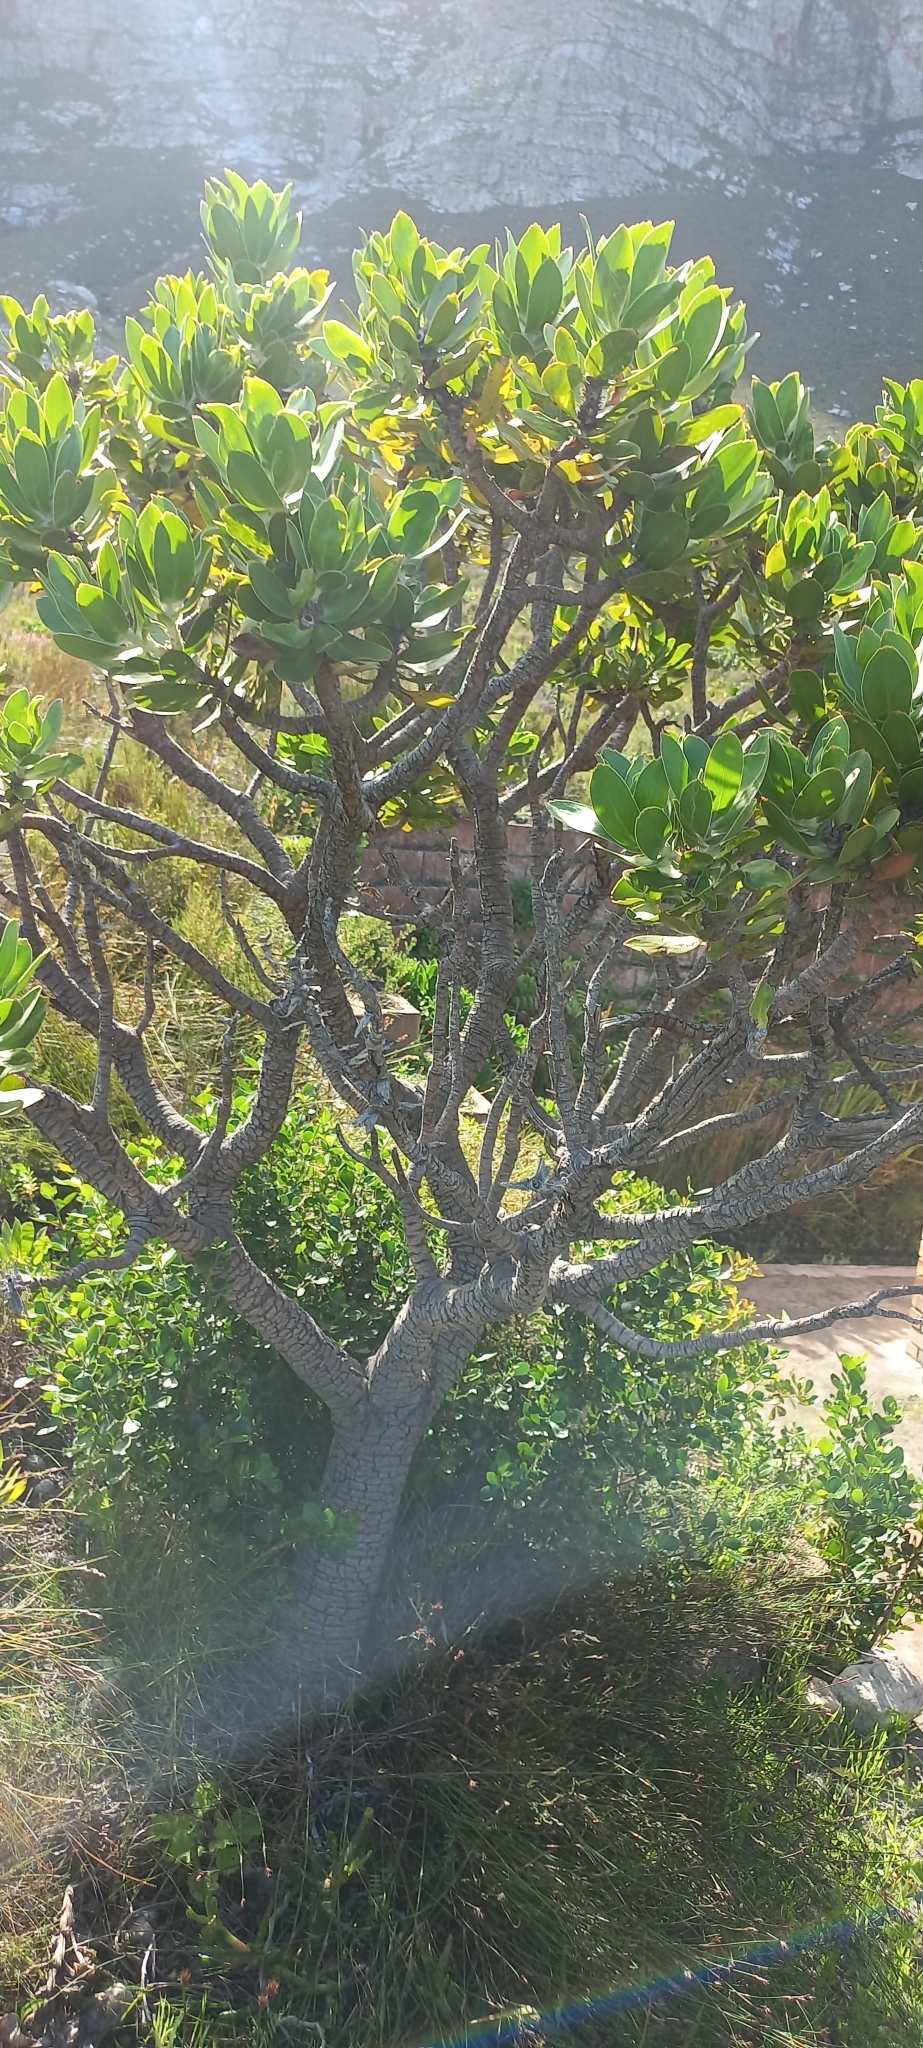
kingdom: Plantae
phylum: Tracheophyta
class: Magnoliopsida
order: Proteales
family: Proteaceae
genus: Leucospermum
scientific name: Leucospermum conocarpodendron
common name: Tree pincushion
